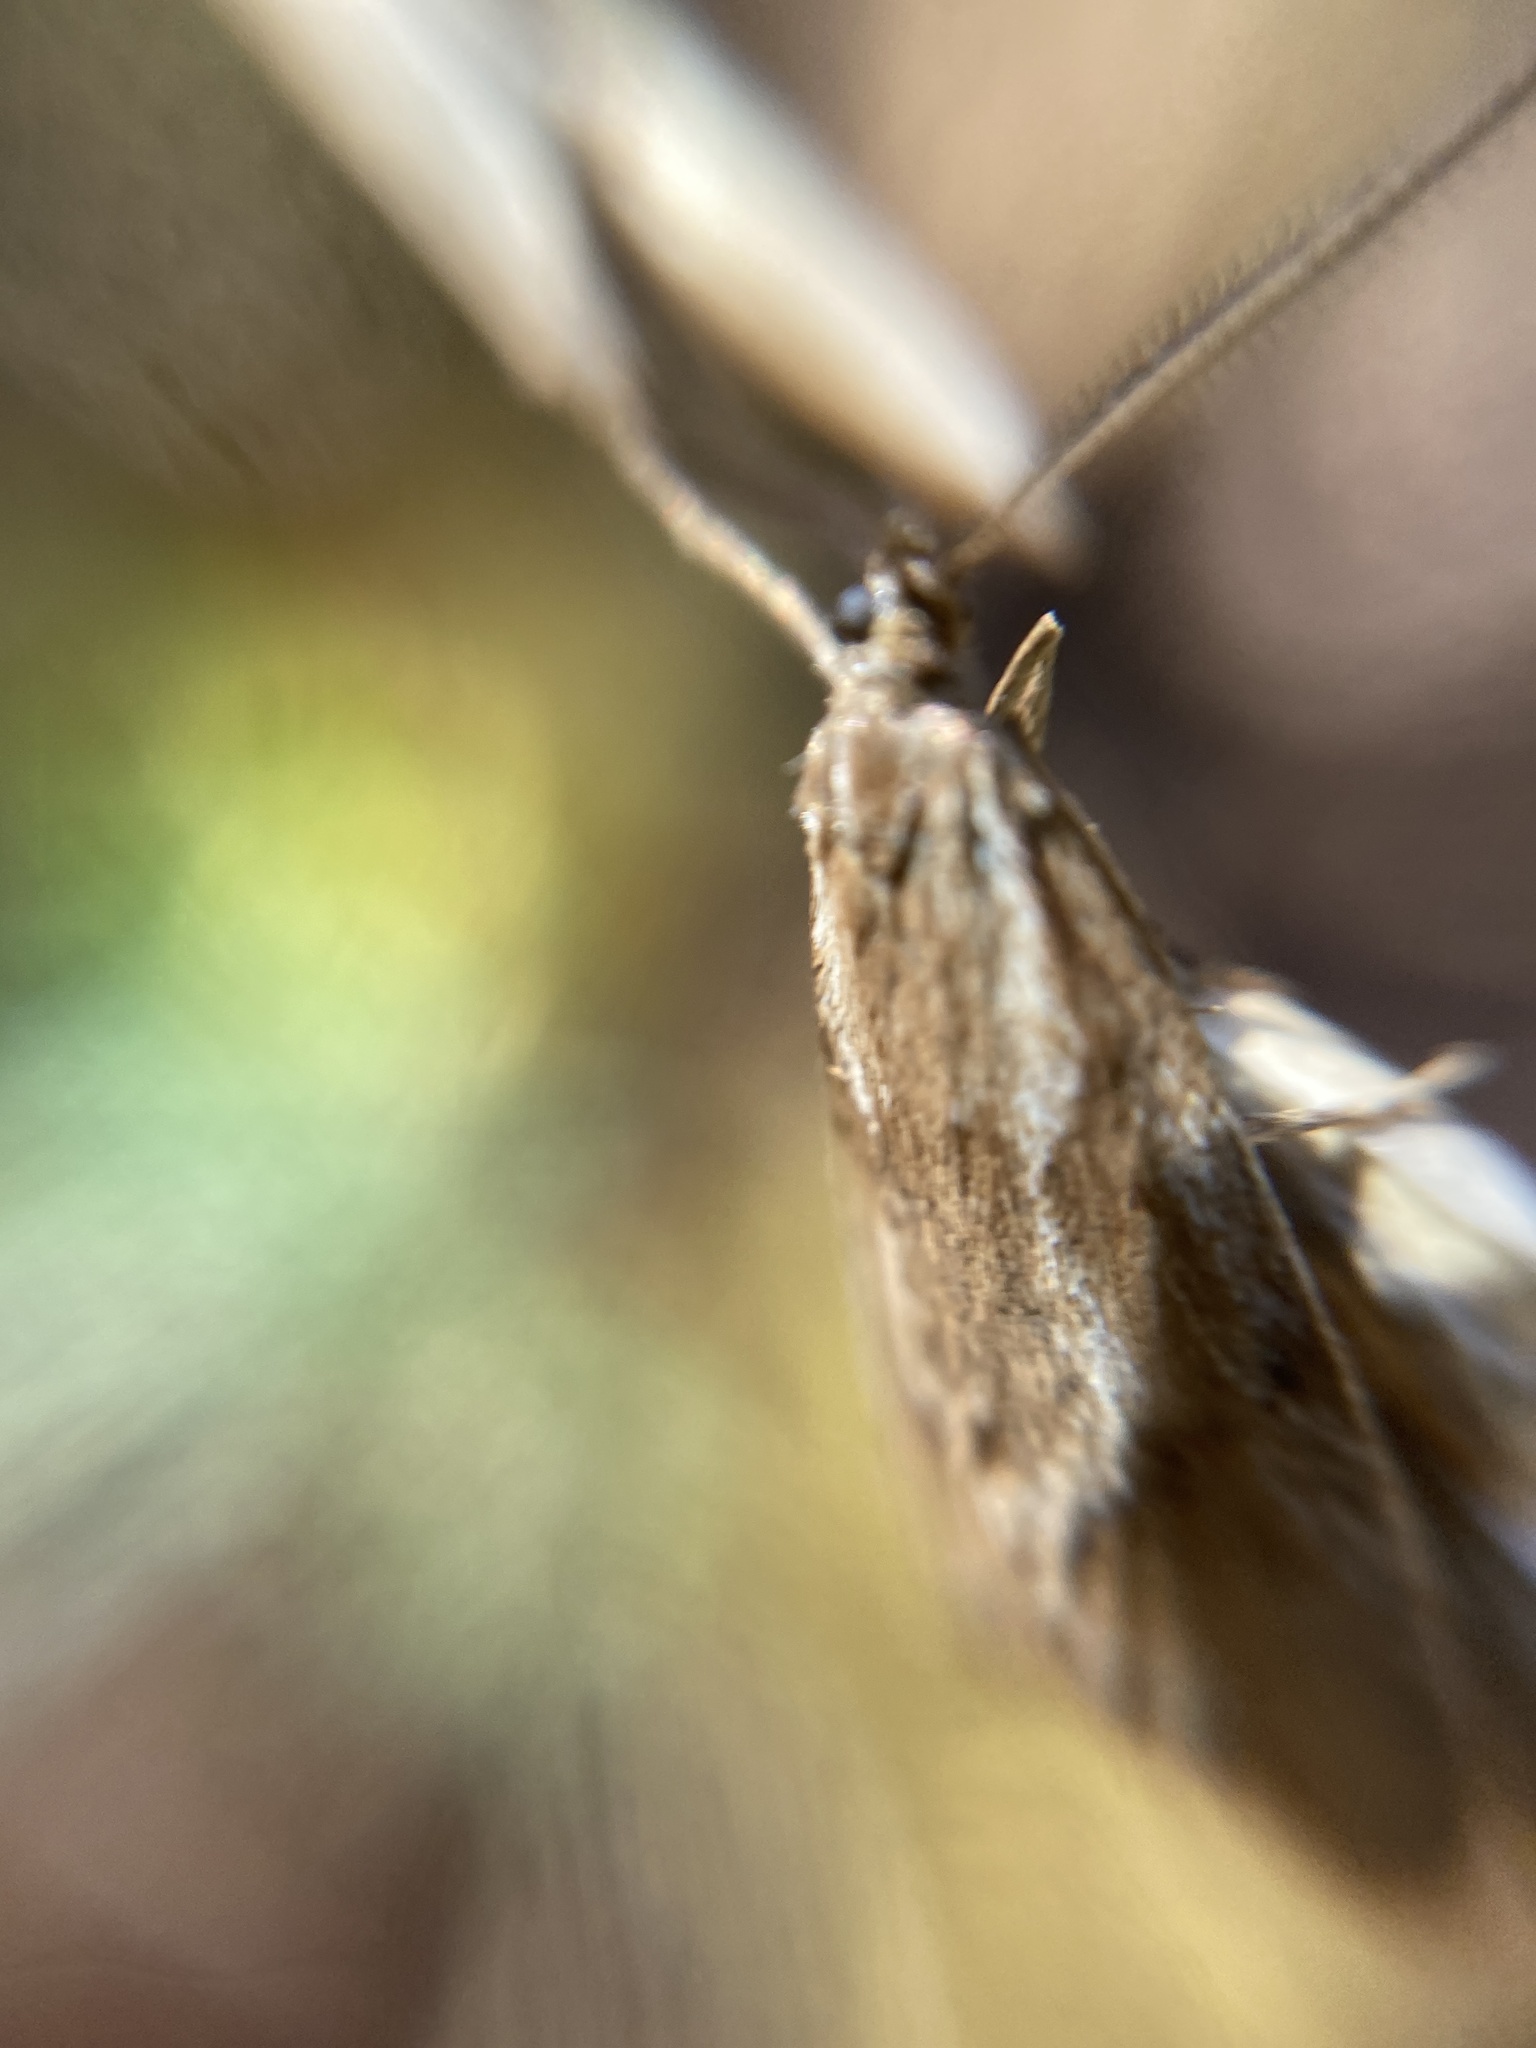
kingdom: Animalia
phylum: Arthropoda
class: Insecta
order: Lepidoptera
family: Lypusidae
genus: Diurnea
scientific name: Diurnea lipsiella
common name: November tubic
